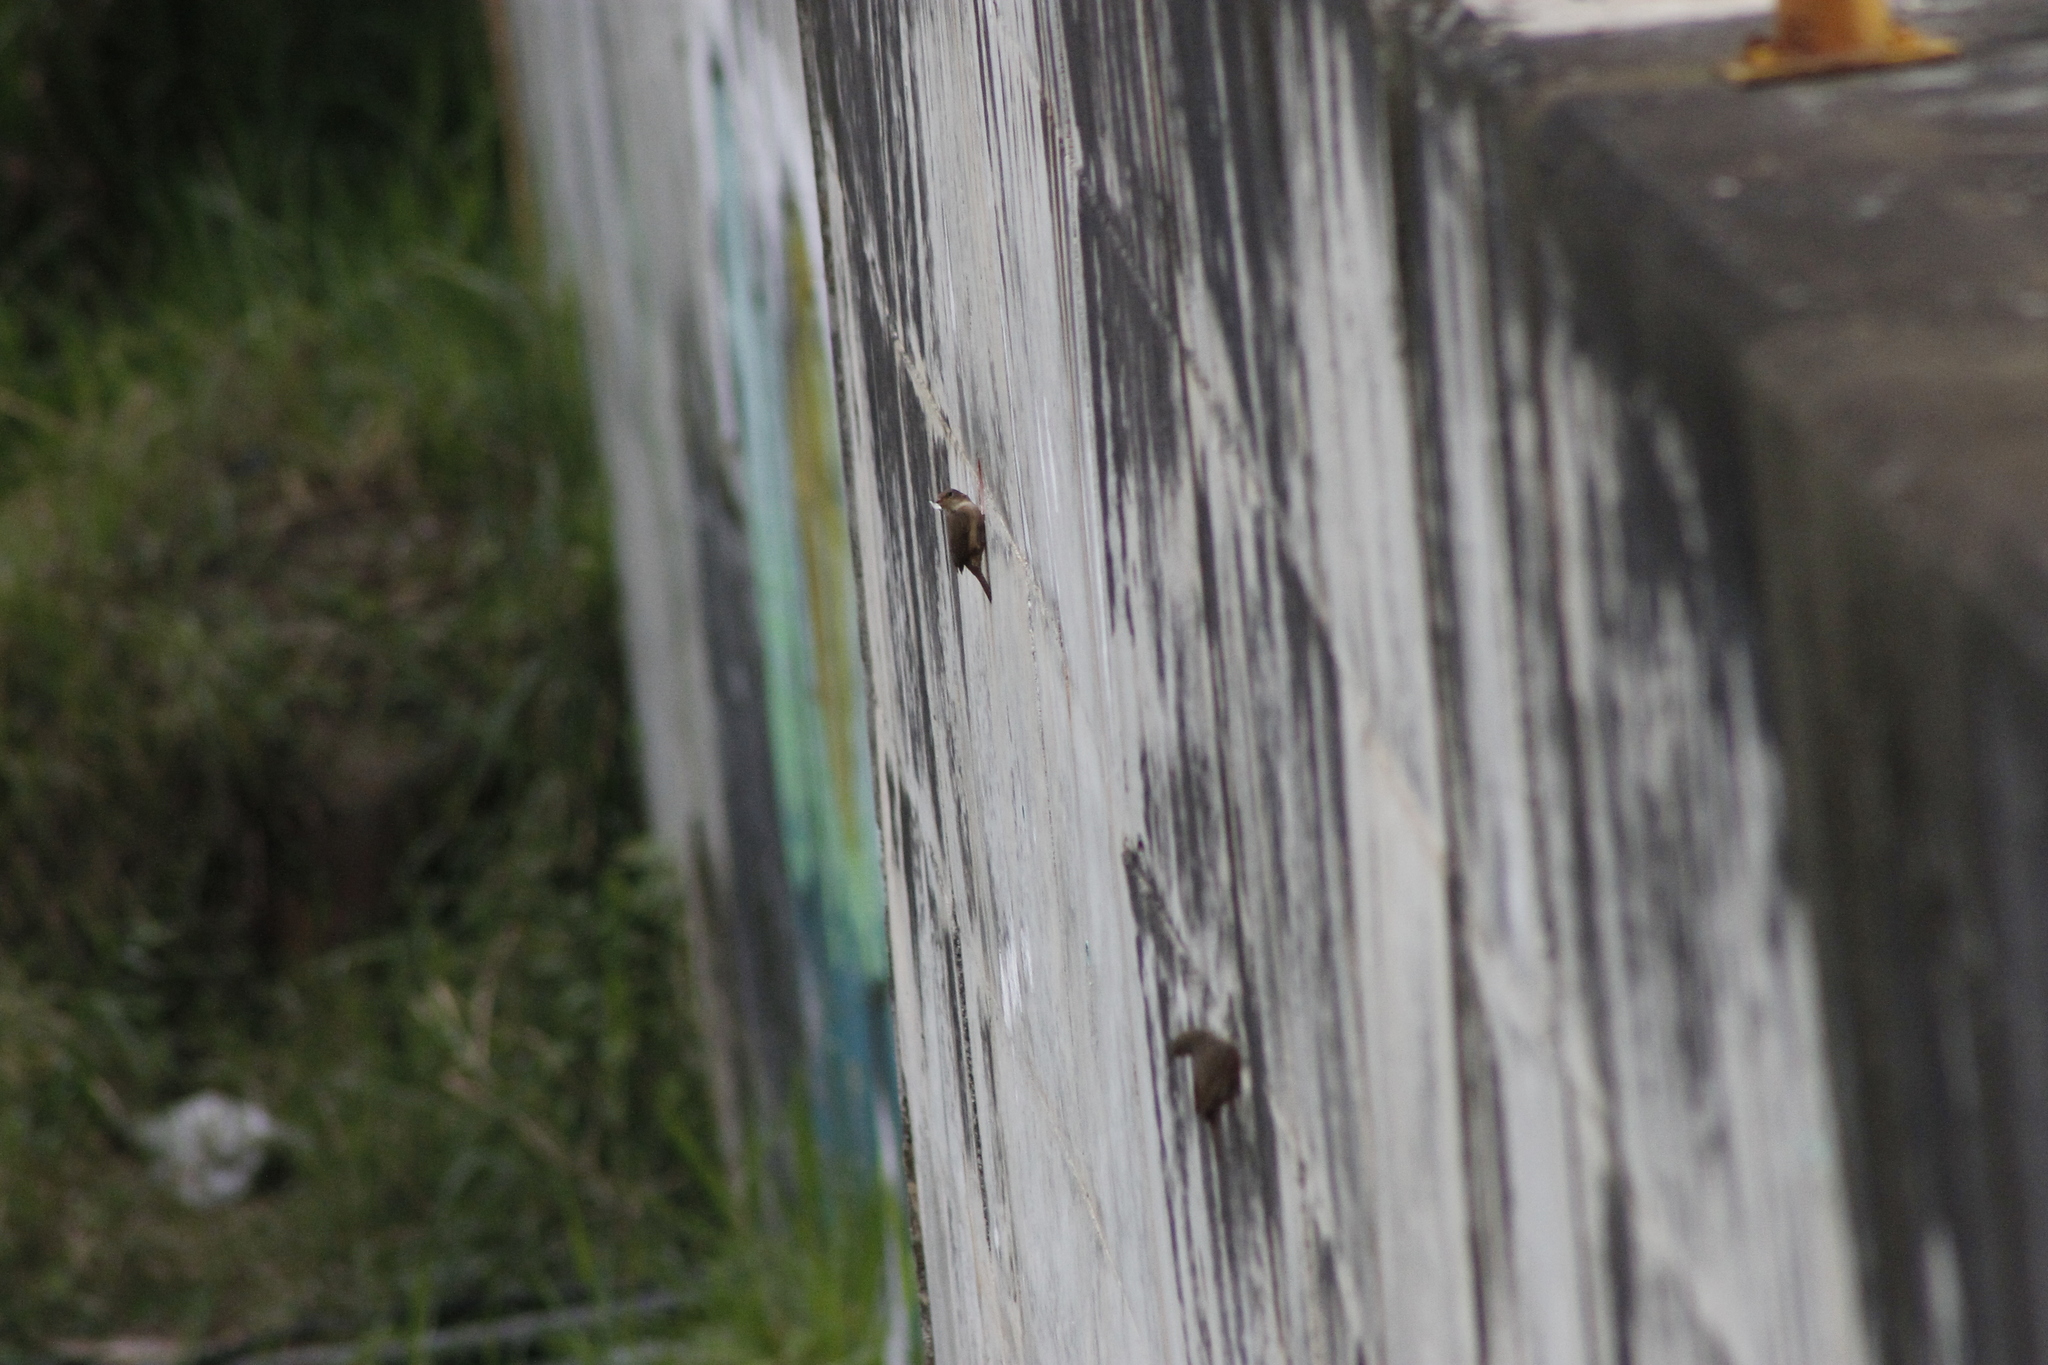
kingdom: Animalia
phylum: Chordata
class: Aves
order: Passeriformes
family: Troglodytidae
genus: Troglodytes
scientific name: Troglodytes aedon
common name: House wren
